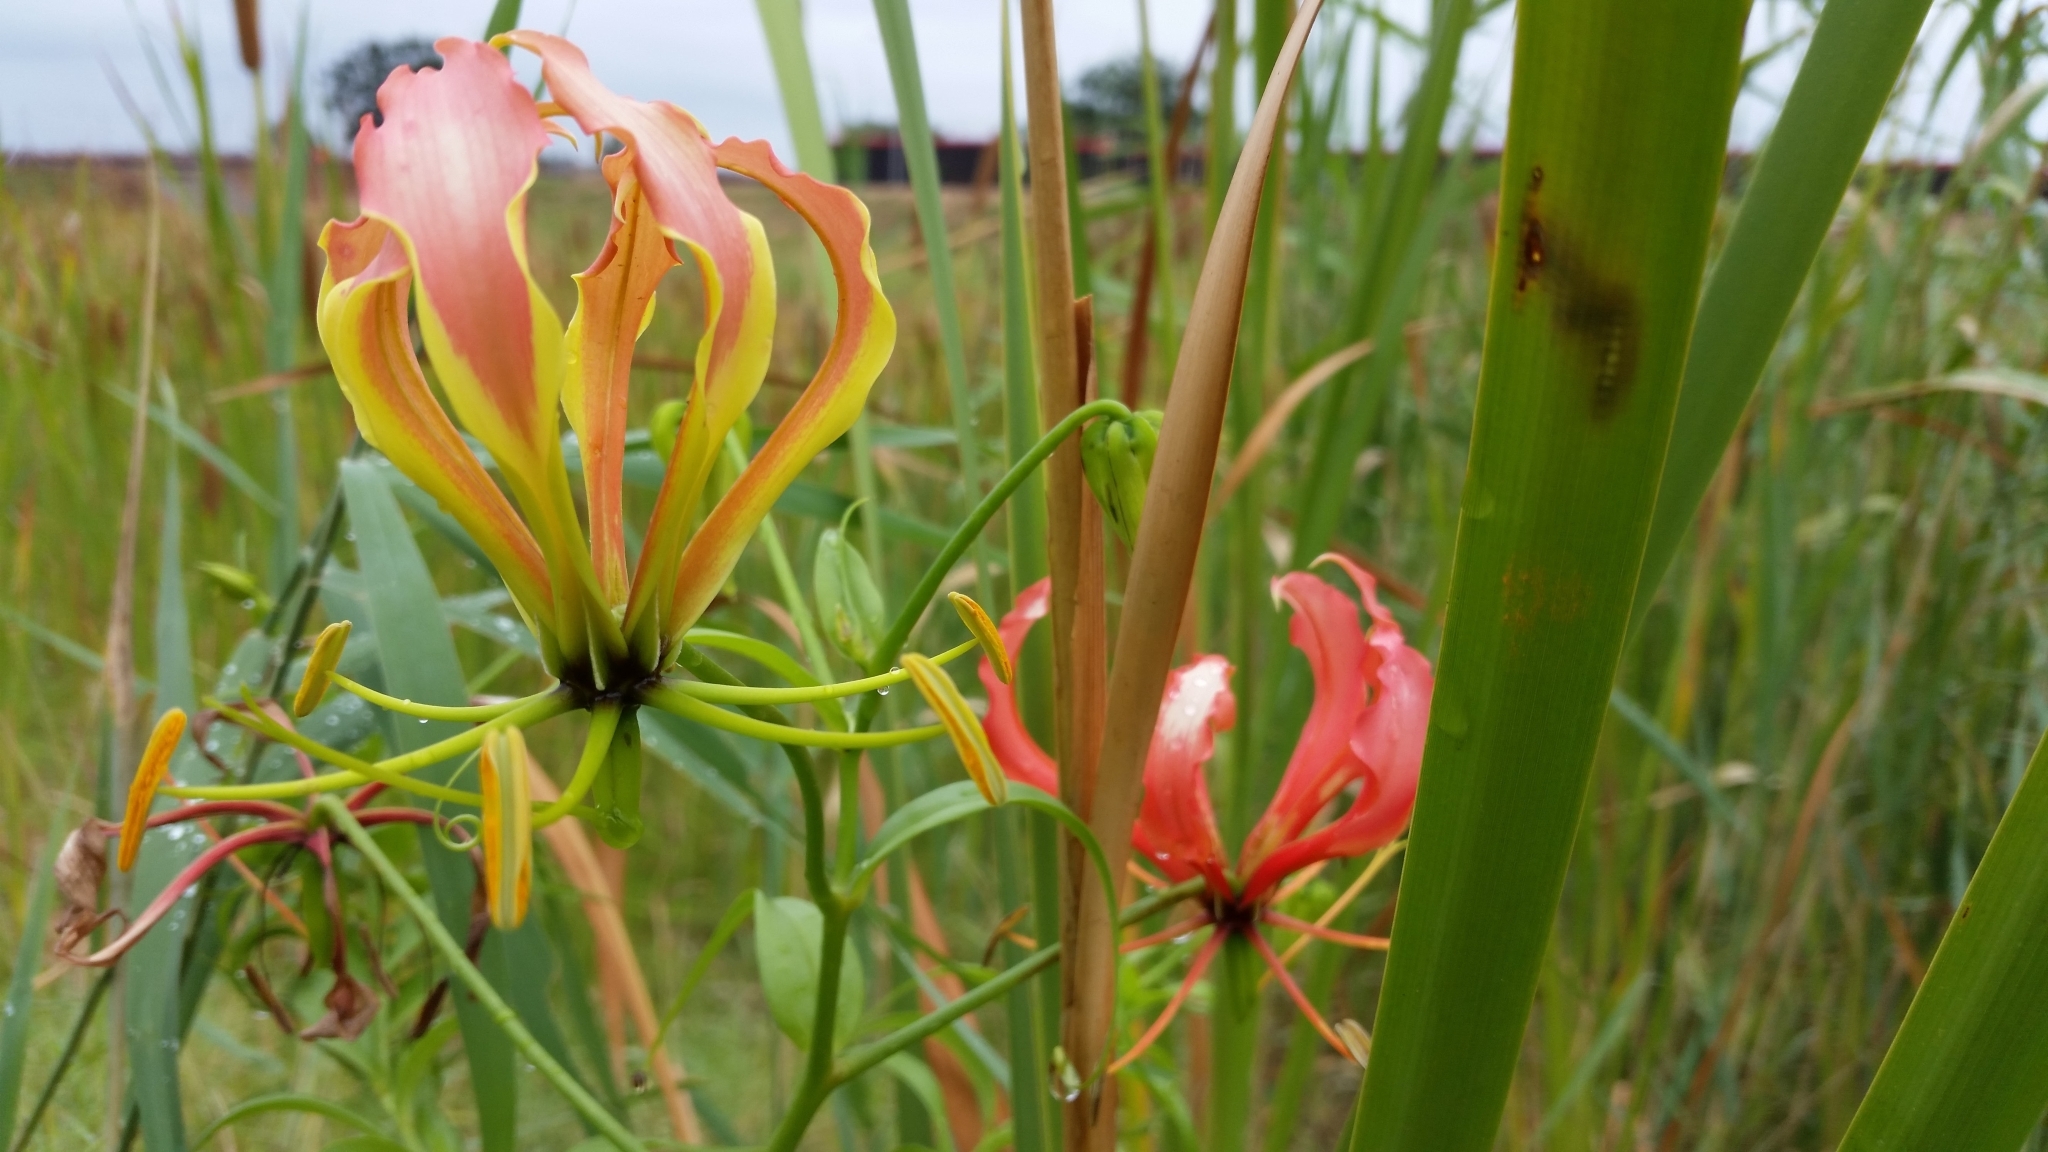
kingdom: Plantae
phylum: Tracheophyta
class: Liliopsida
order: Liliales
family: Colchicaceae
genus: Gloriosa
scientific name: Gloriosa superba
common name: Flame lily
